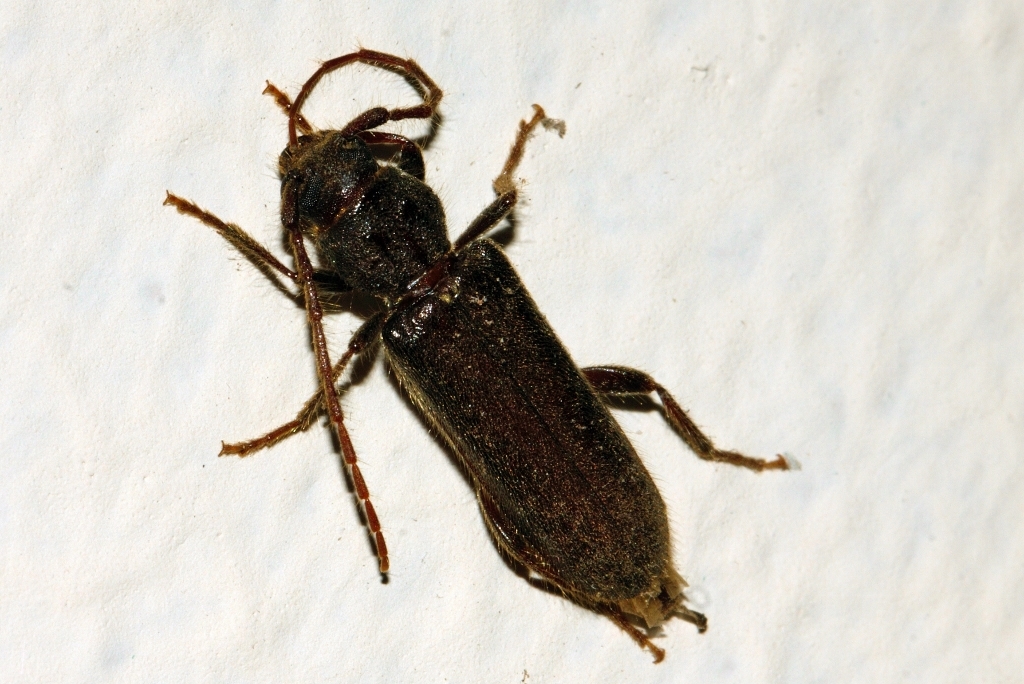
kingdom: Animalia
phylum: Arthropoda
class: Insecta
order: Coleoptera
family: Cerambycidae
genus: Zamium
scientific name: Zamium incultum
